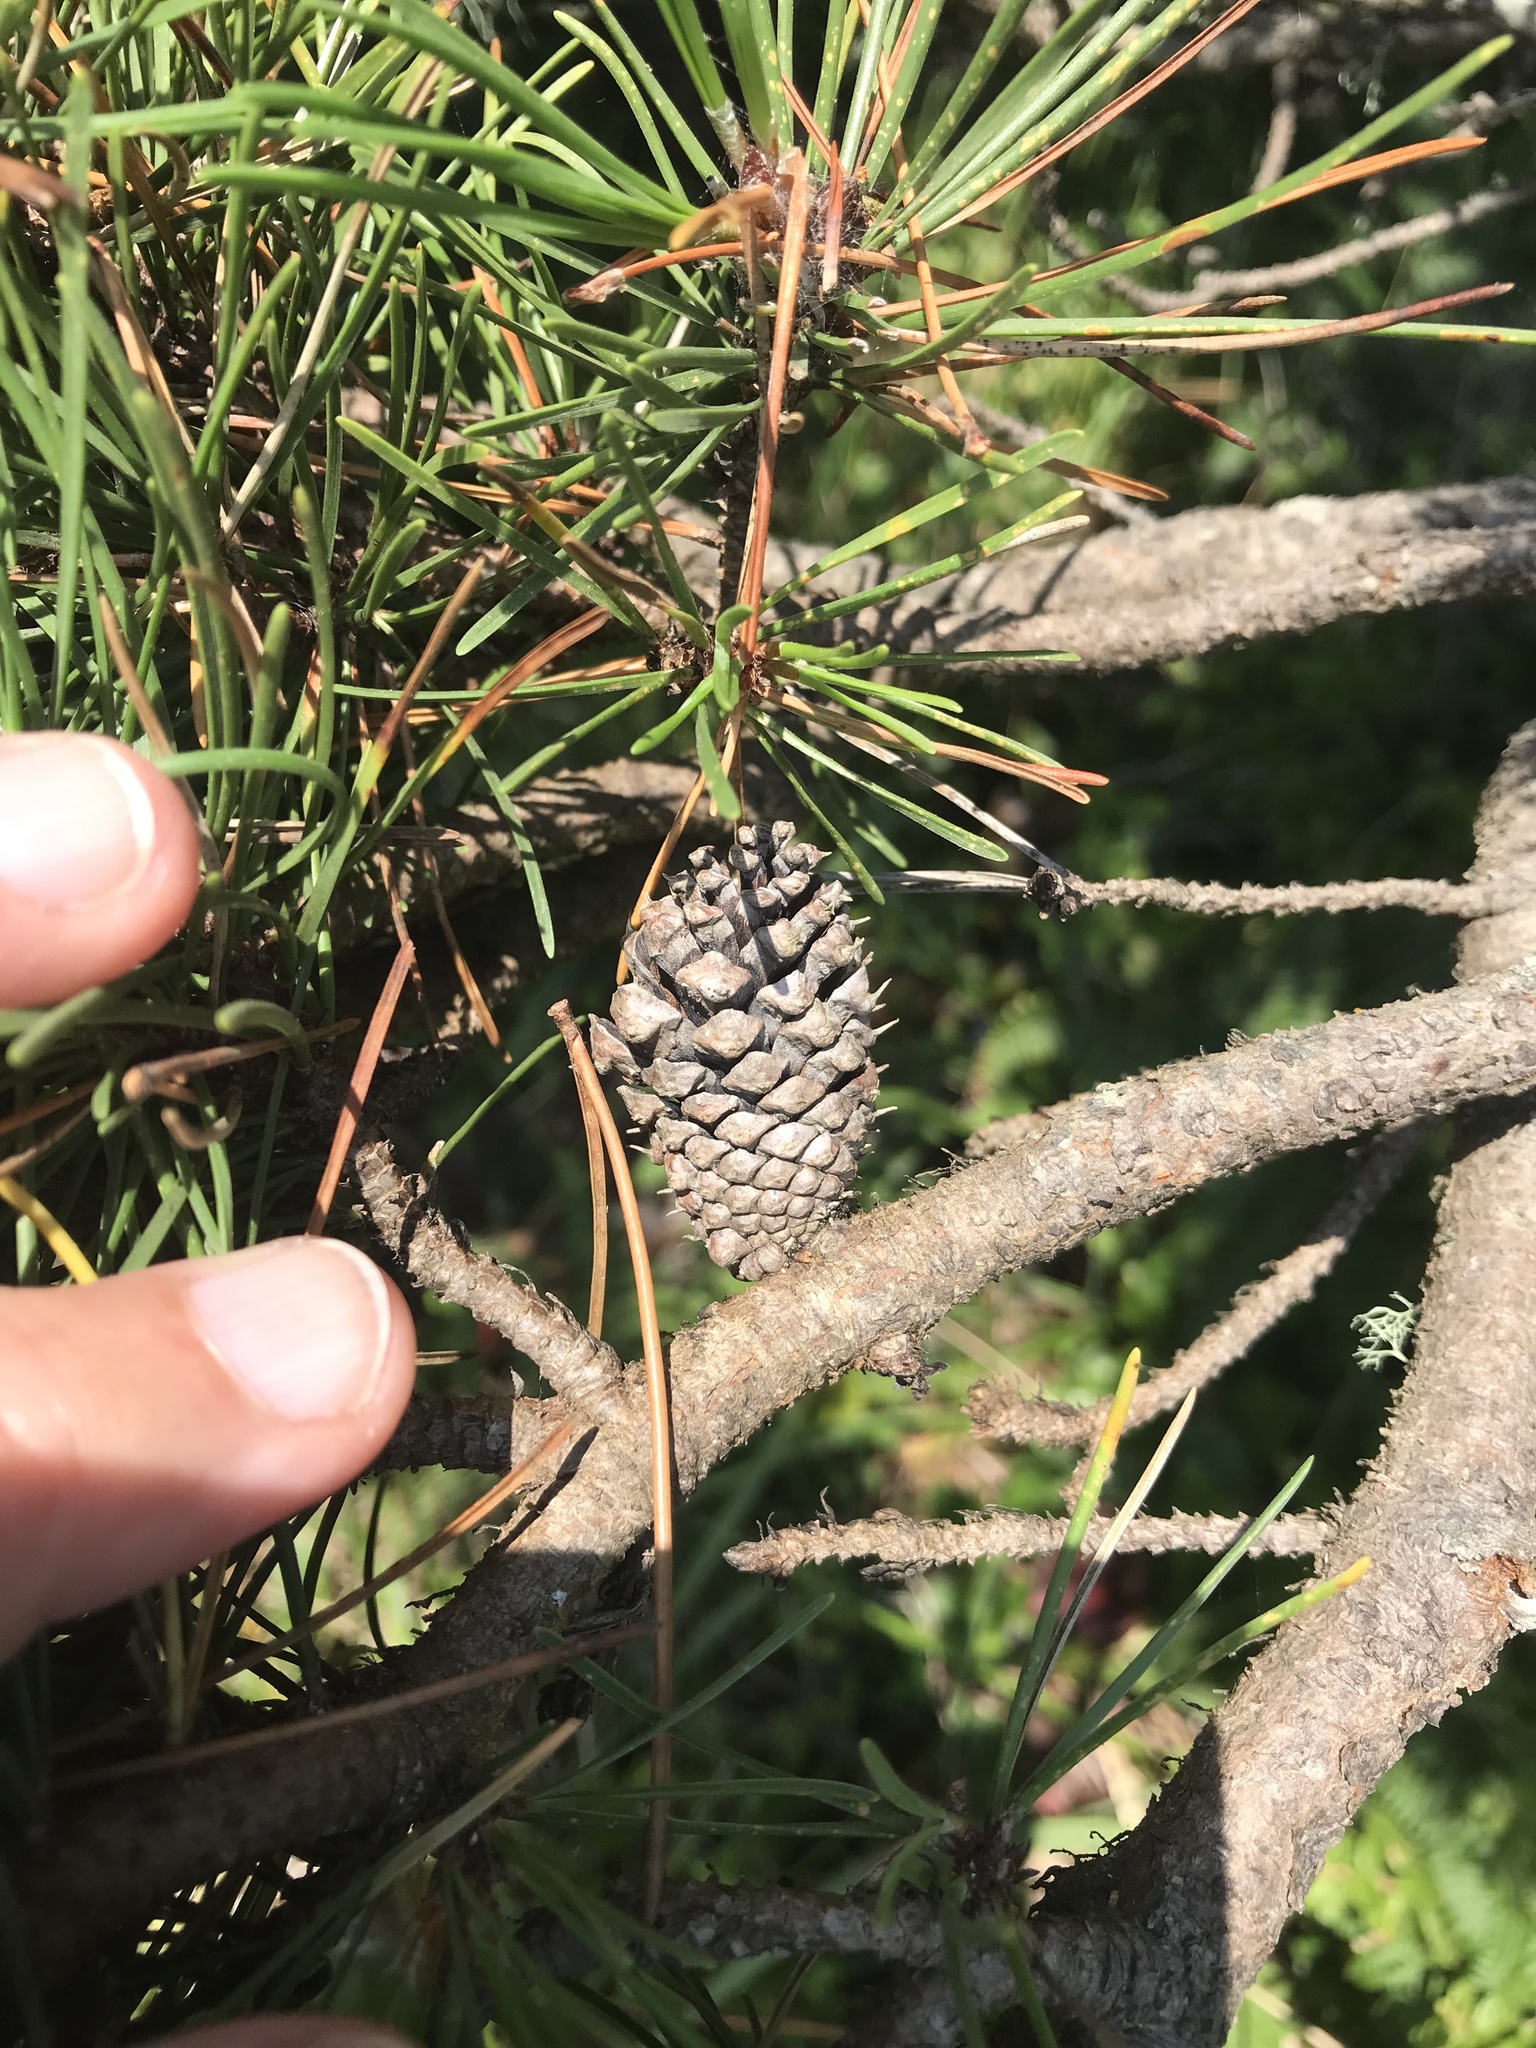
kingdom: Plantae
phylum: Tracheophyta
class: Pinopsida
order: Pinales
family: Pinaceae
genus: Pinus
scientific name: Pinus contorta
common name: Lodgepole pine
